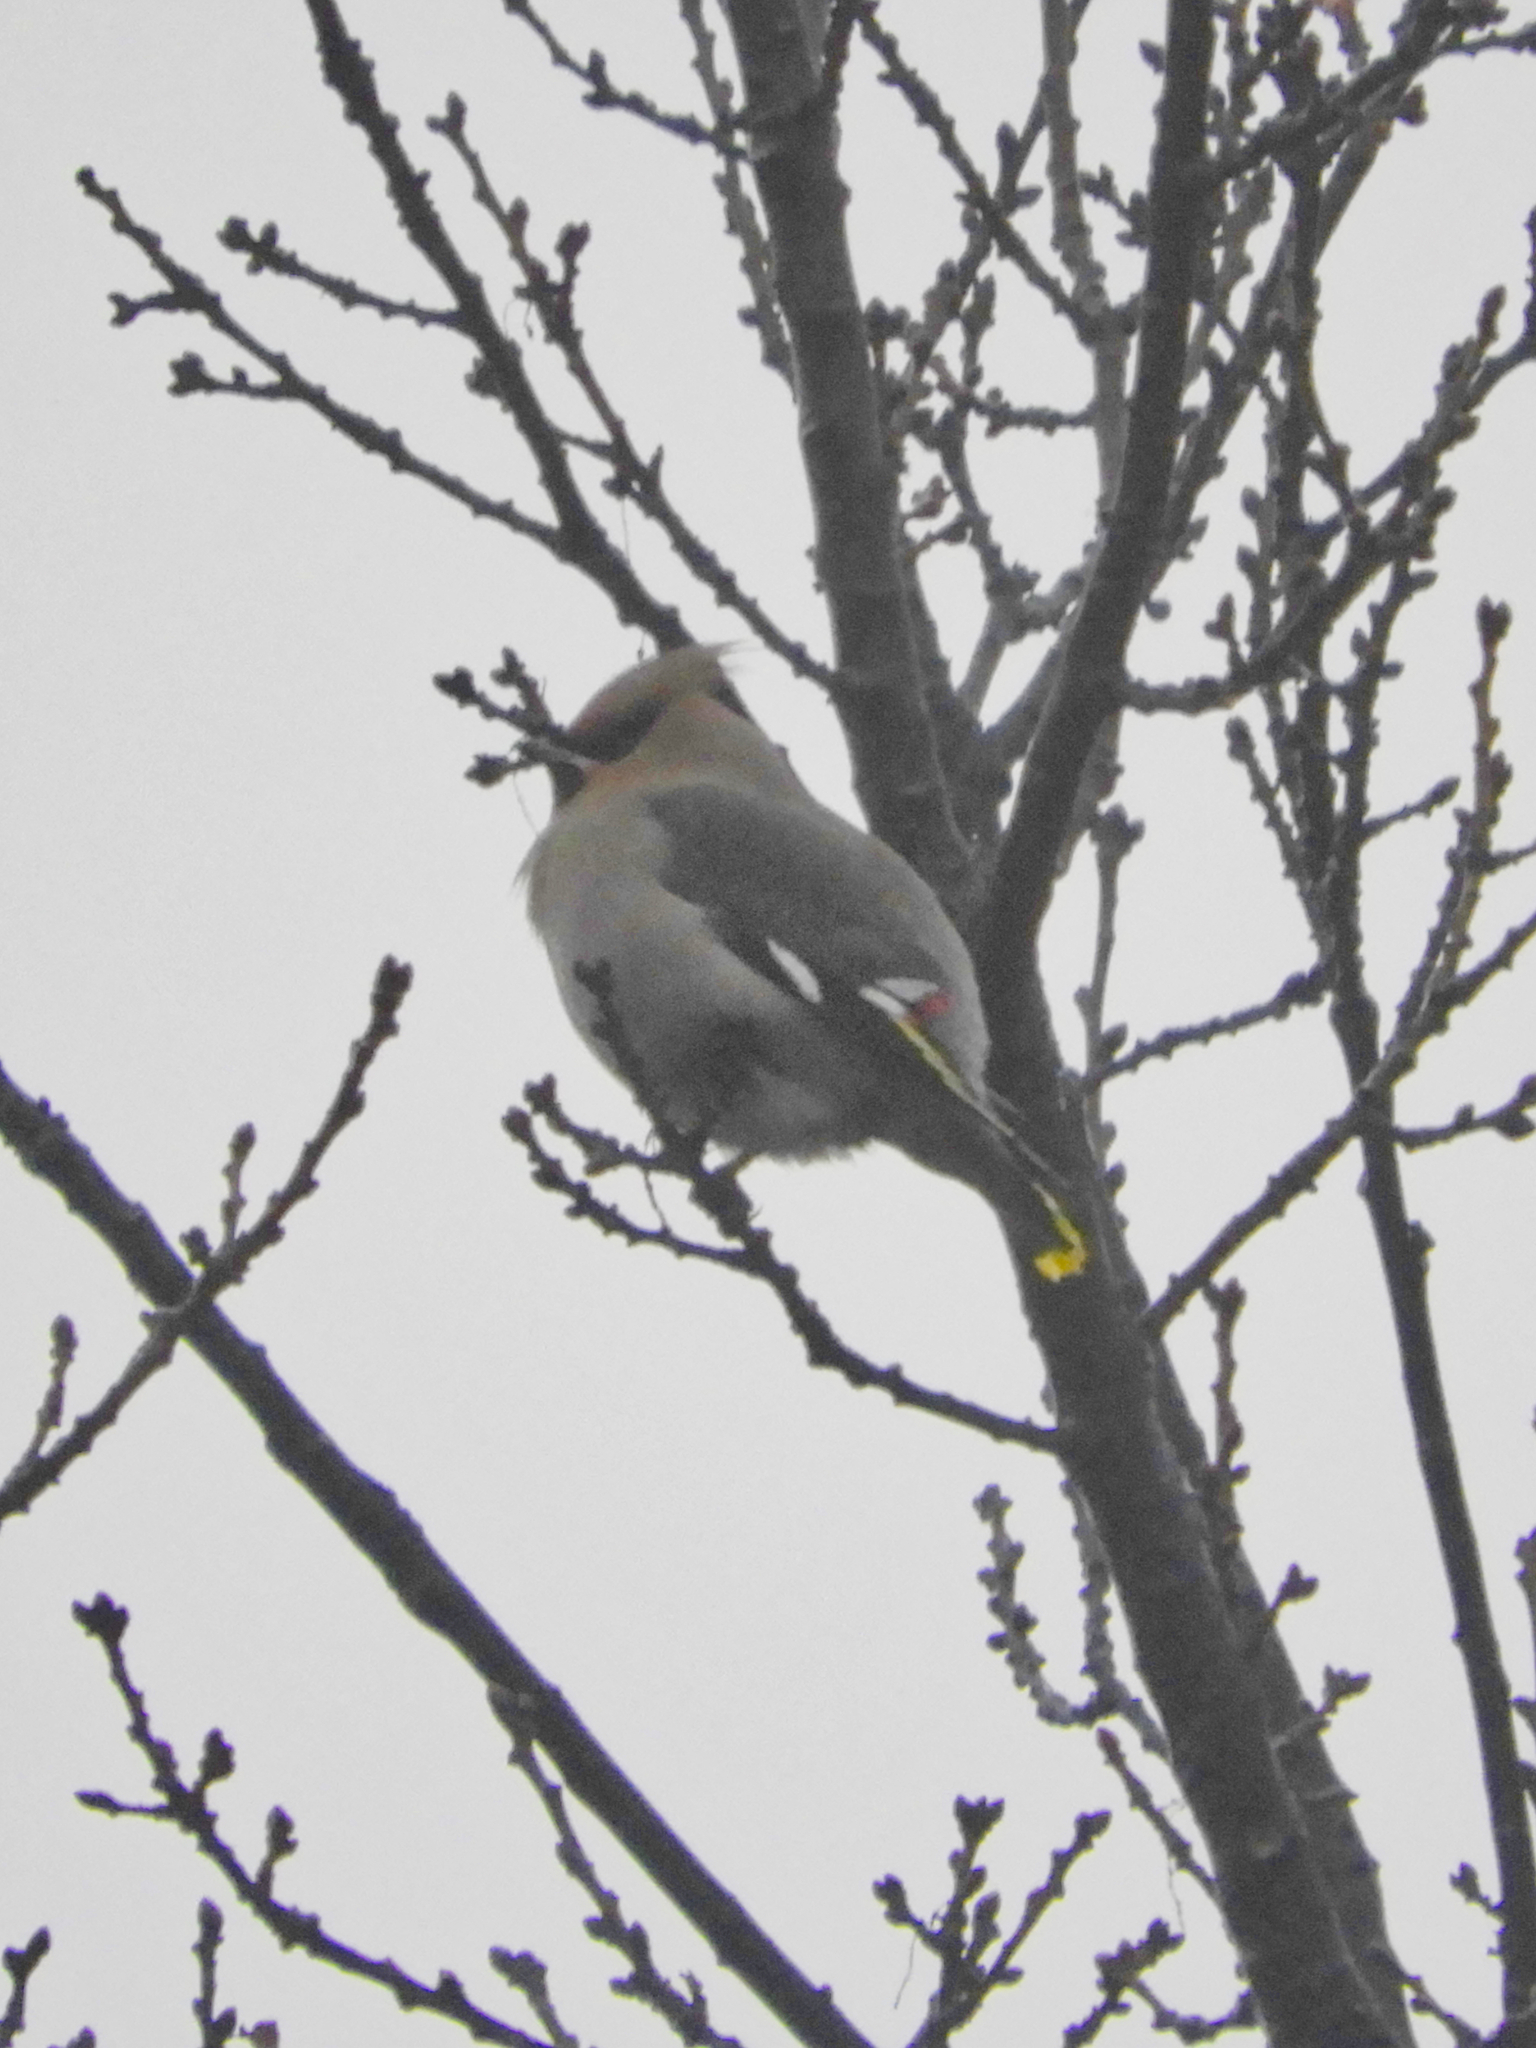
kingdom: Animalia
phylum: Chordata
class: Aves
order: Passeriformes
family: Bombycillidae
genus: Bombycilla
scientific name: Bombycilla garrulus
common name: Bohemian waxwing
